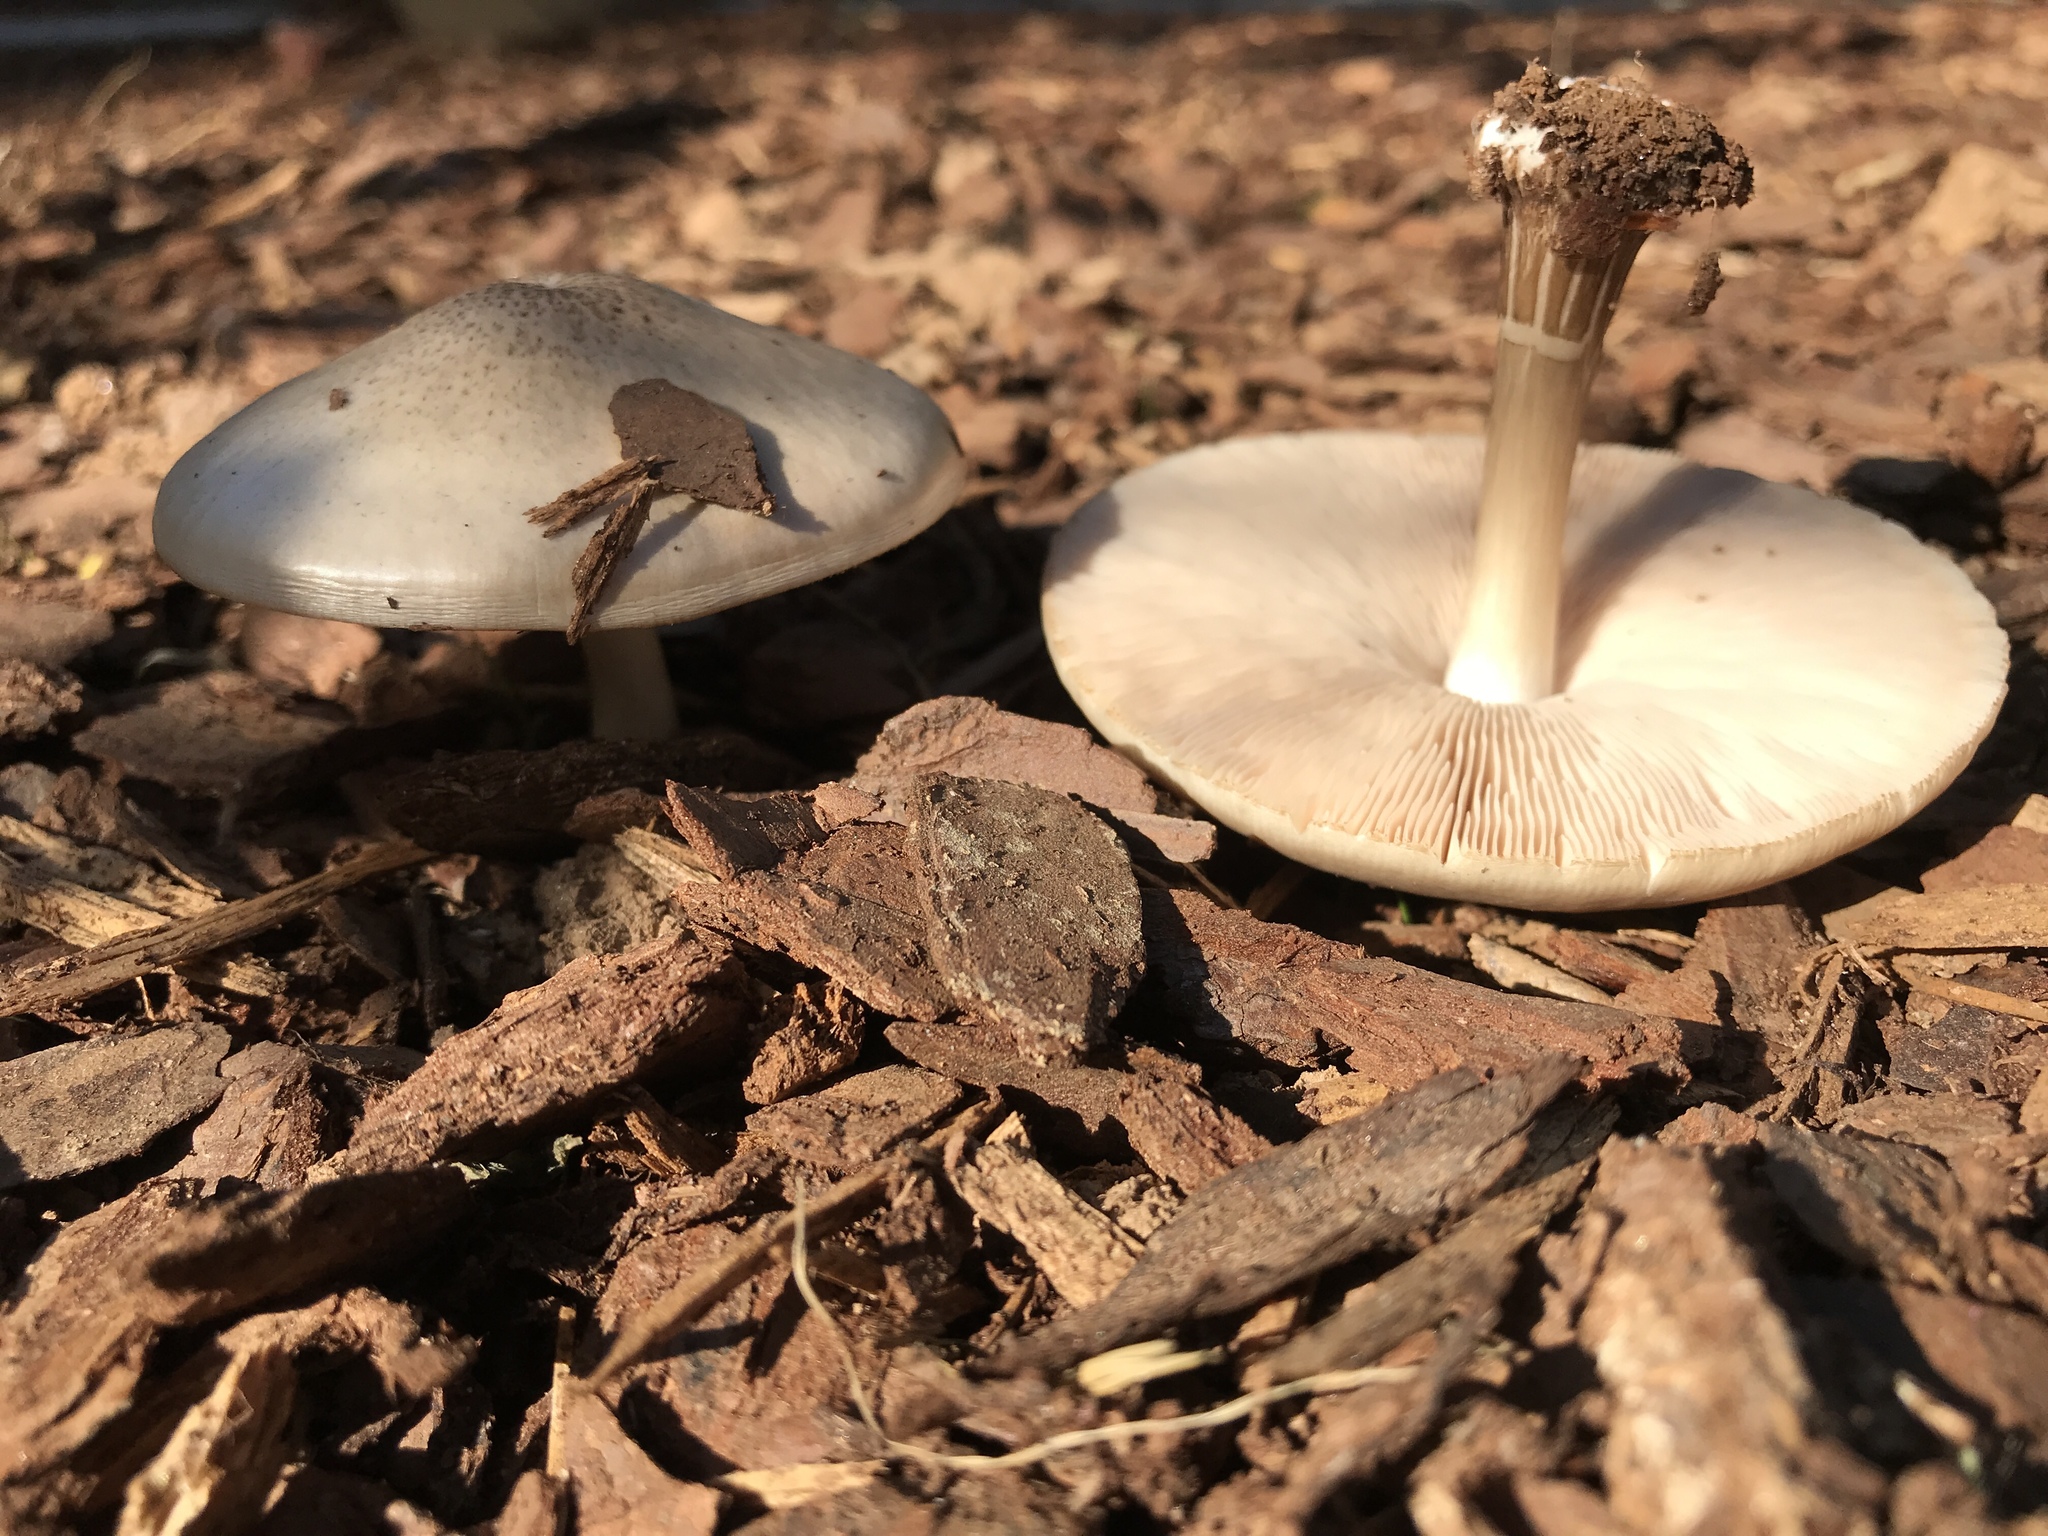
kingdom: Fungi
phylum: Basidiomycota
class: Agaricomycetes
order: Agaricales
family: Pluteaceae
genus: Pluteus
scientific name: Pluteus cervinus
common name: Deer shield
